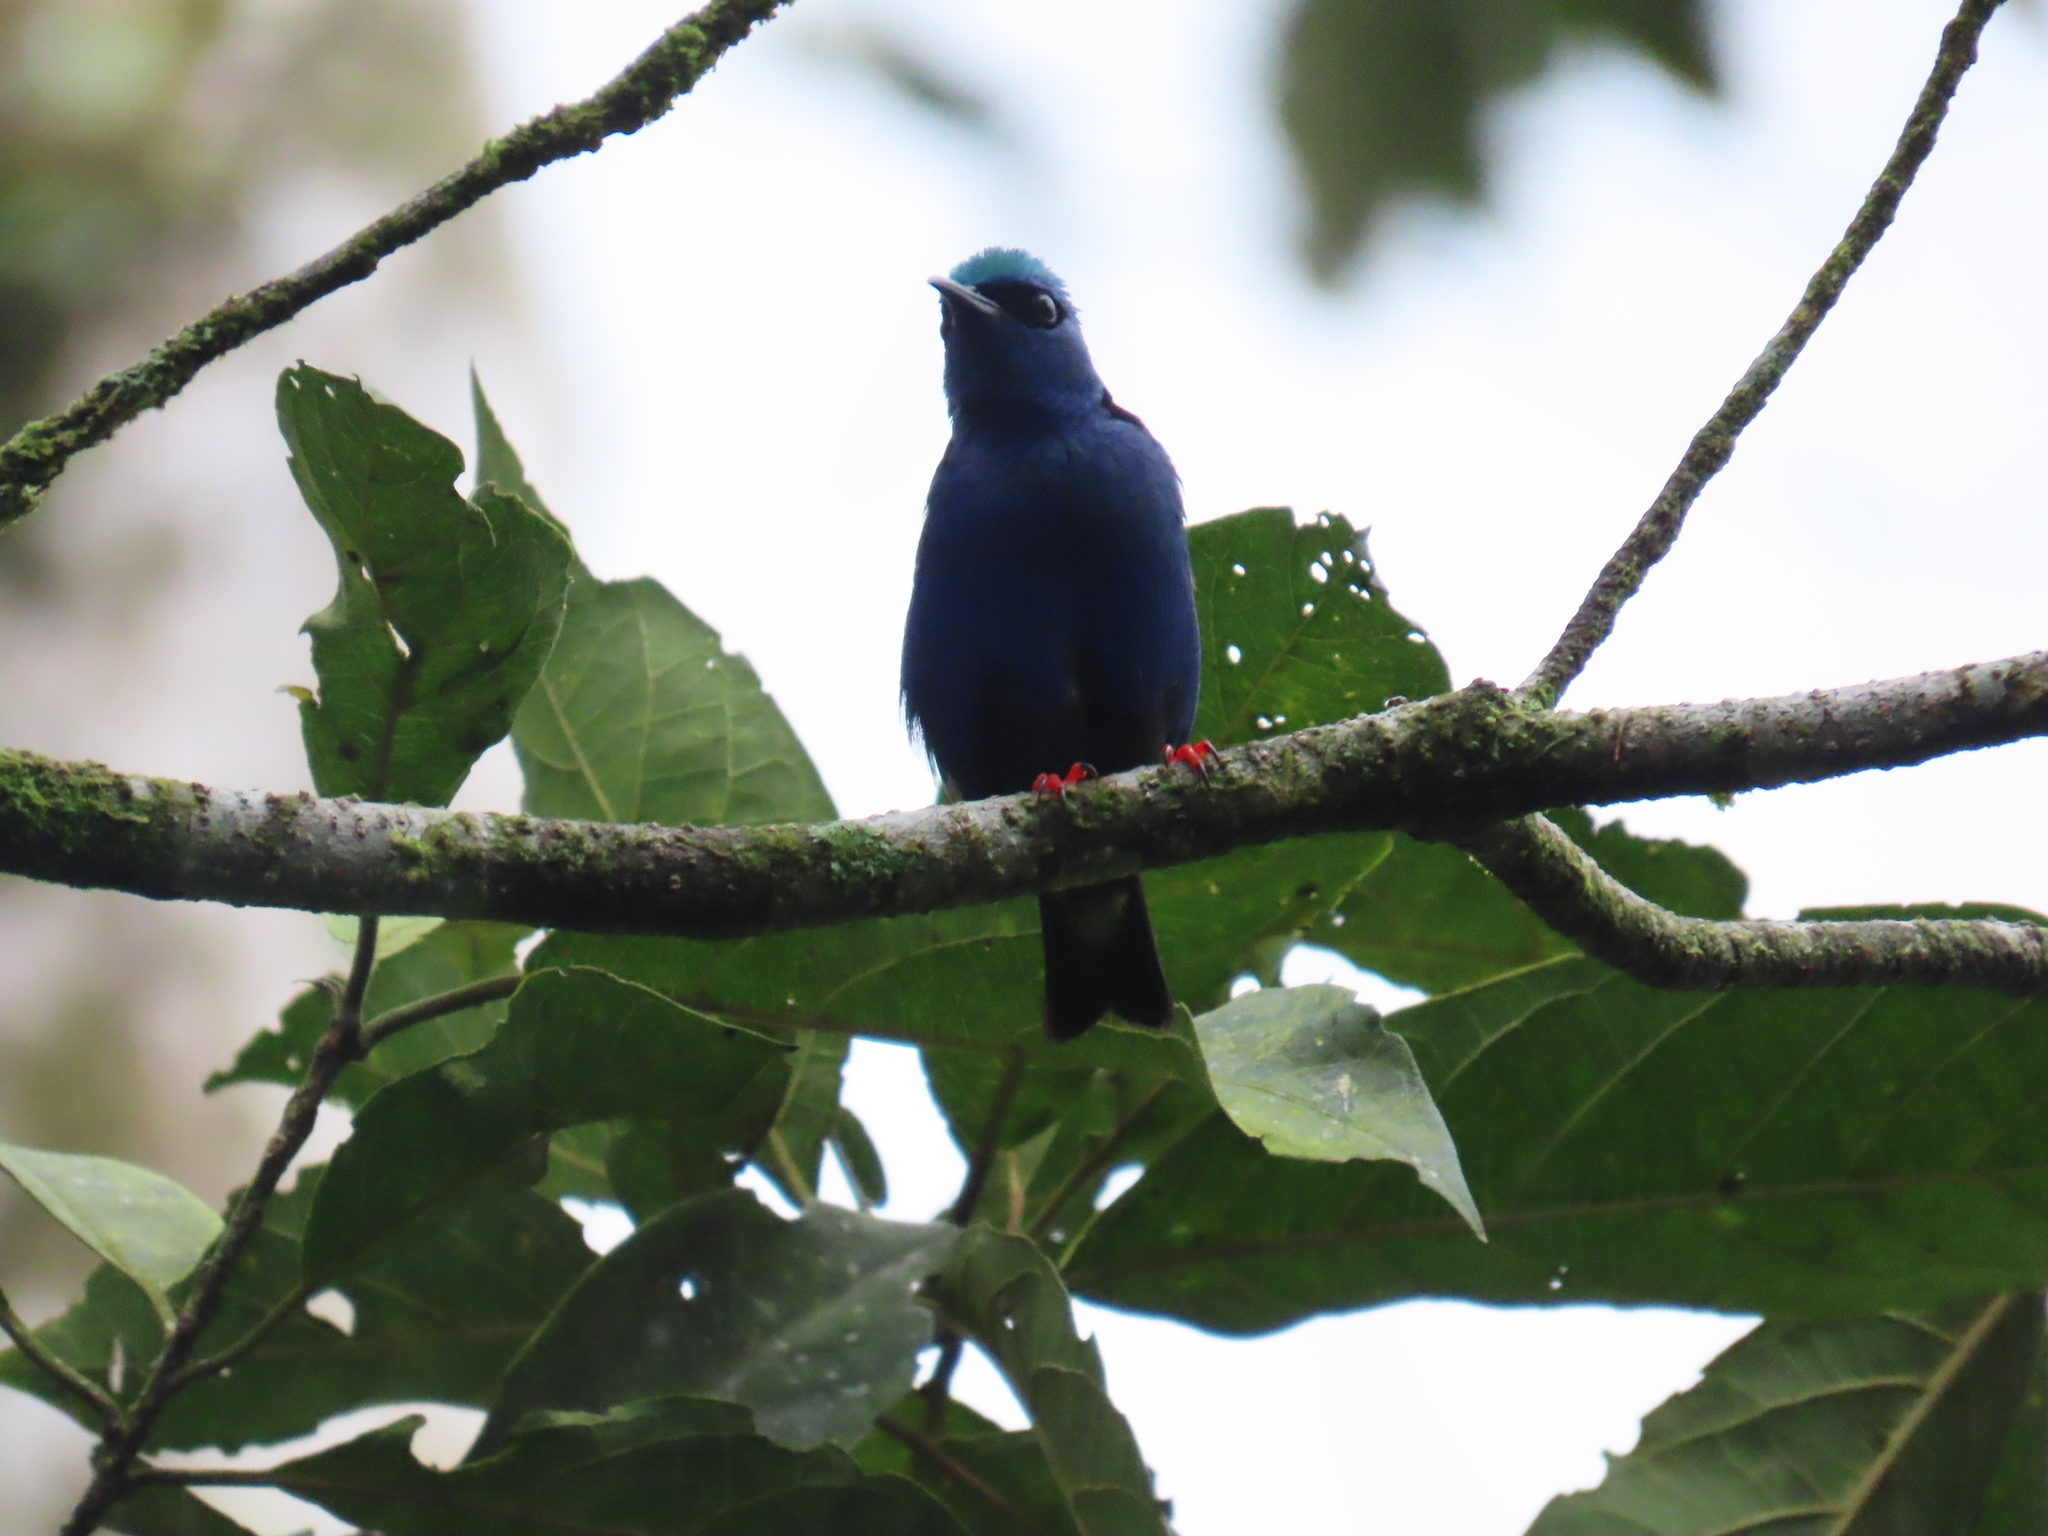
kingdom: Animalia
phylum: Chordata
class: Aves
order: Passeriformes
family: Thraupidae
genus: Cyanerpes
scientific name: Cyanerpes cyaneus
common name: Red-legged honeycreeper
